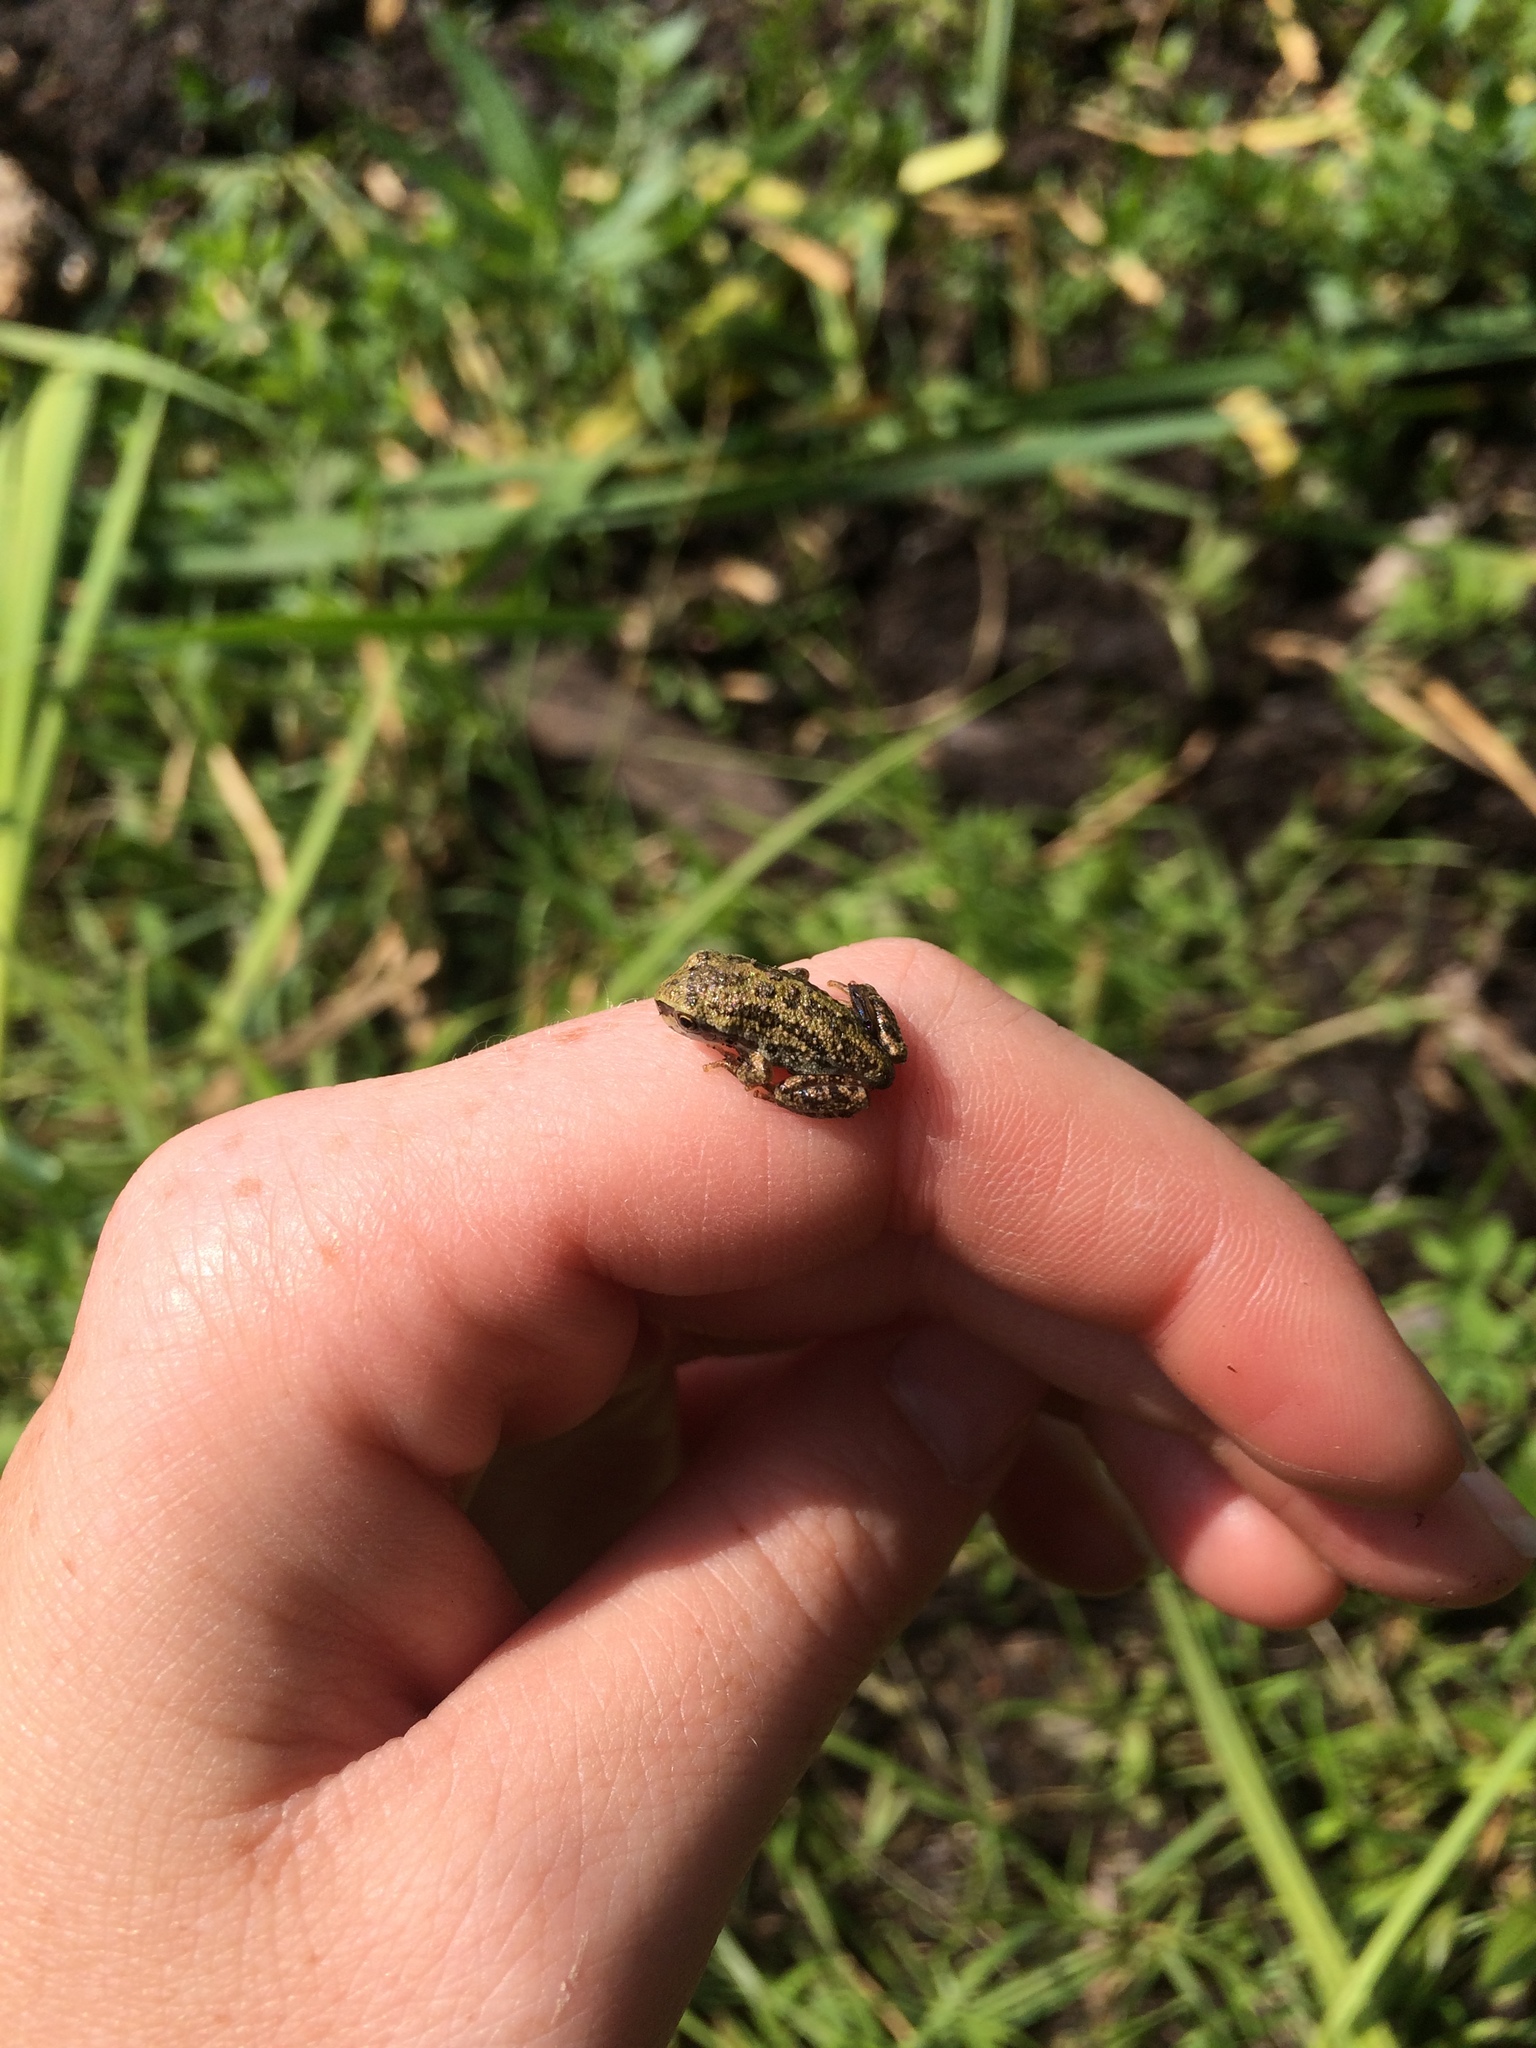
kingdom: Animalia
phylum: Chordata
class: Amphibia
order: Anura
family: Hylidae
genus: Pseudacris
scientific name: Pseudacris regilla
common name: Pacific chorus frog
